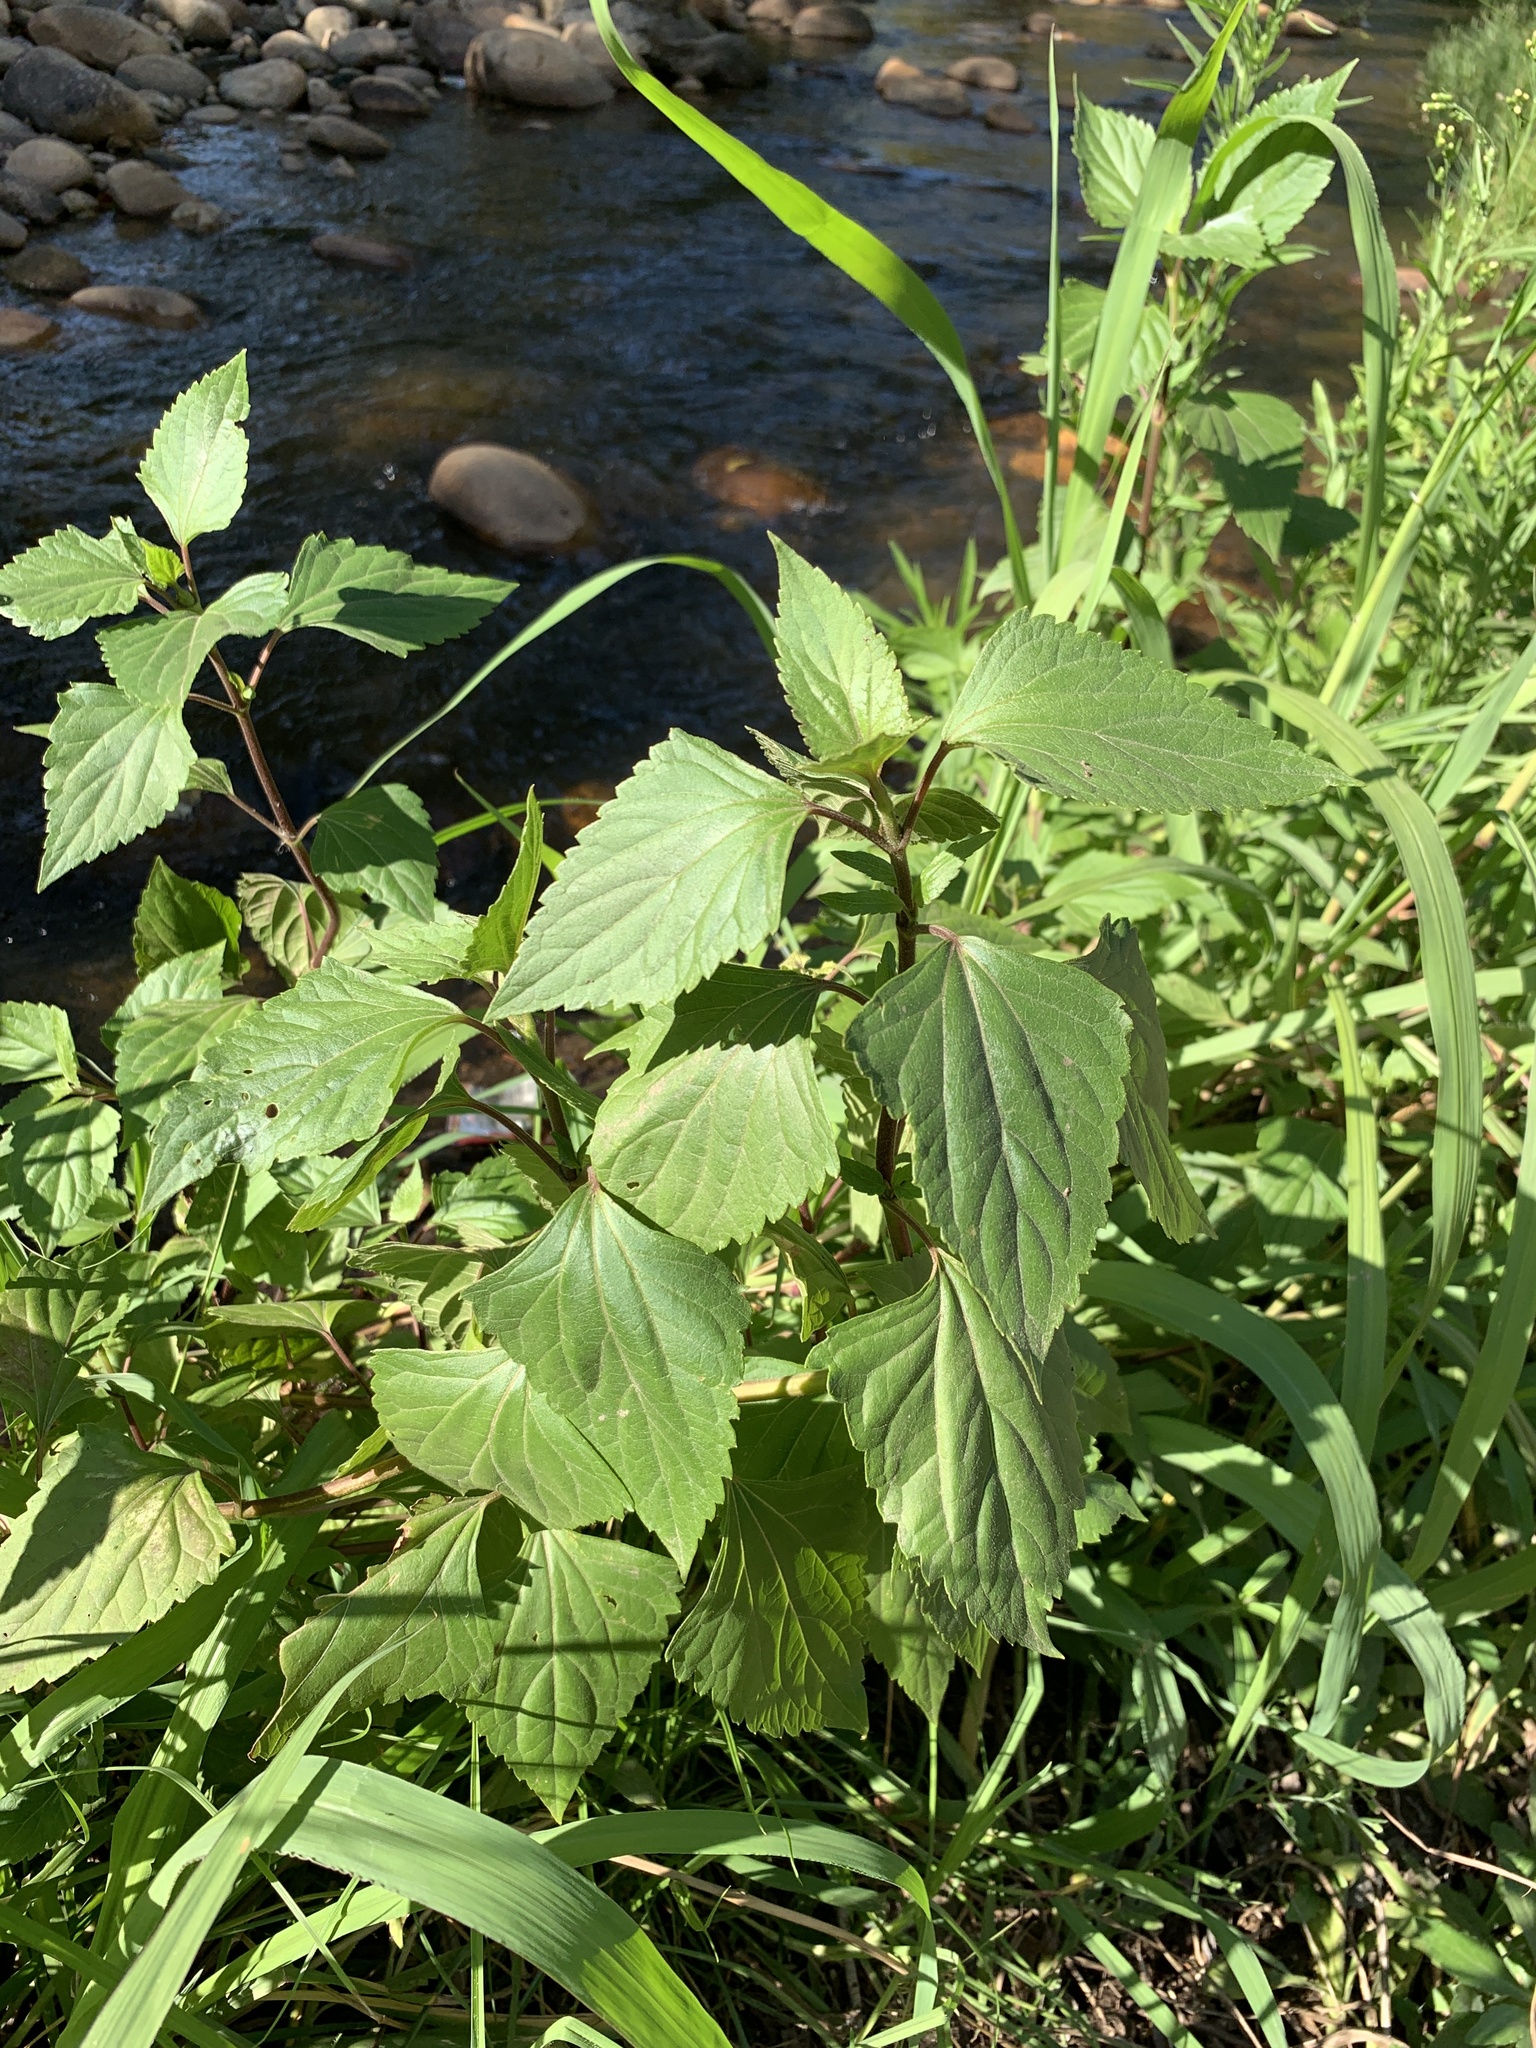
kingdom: Plantae
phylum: Tracheophyta
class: Magnoliopsida
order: Asterales
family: Asteraceae
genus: Ageratina
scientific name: Ageratina adenophora
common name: Sticky snakeroot
